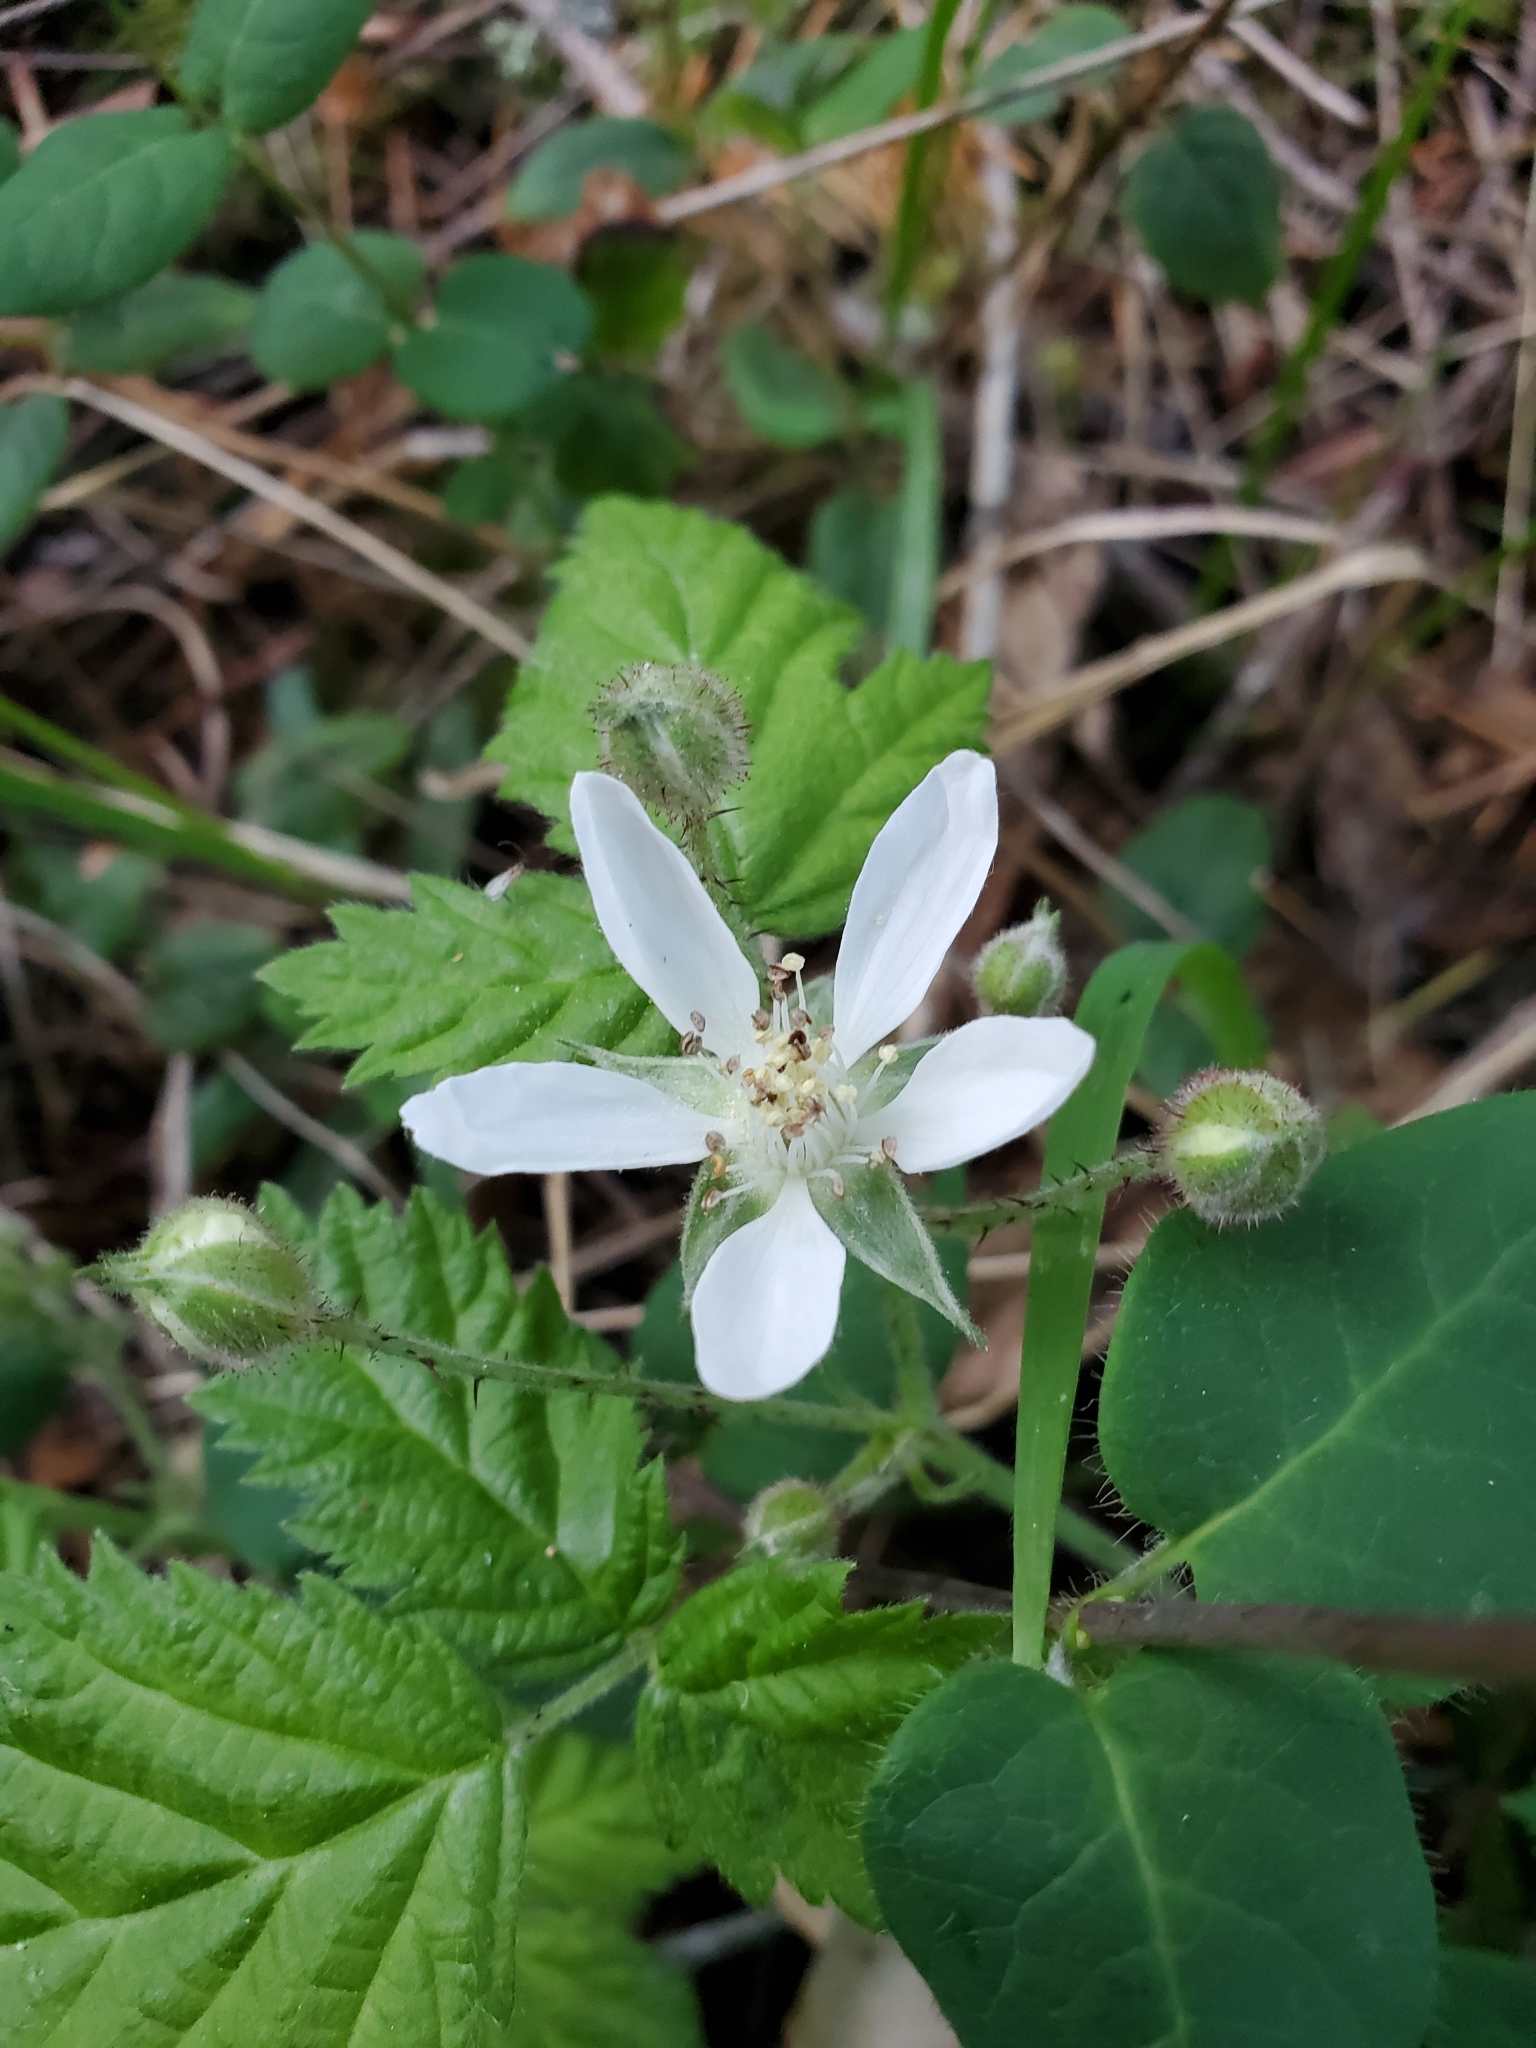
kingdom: Plantae
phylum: Tracheophyta
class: Magnoliopsida
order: Rosales
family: Rosaceae
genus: Rubus
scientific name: Rubus ursinus
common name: Pacific blackberry
